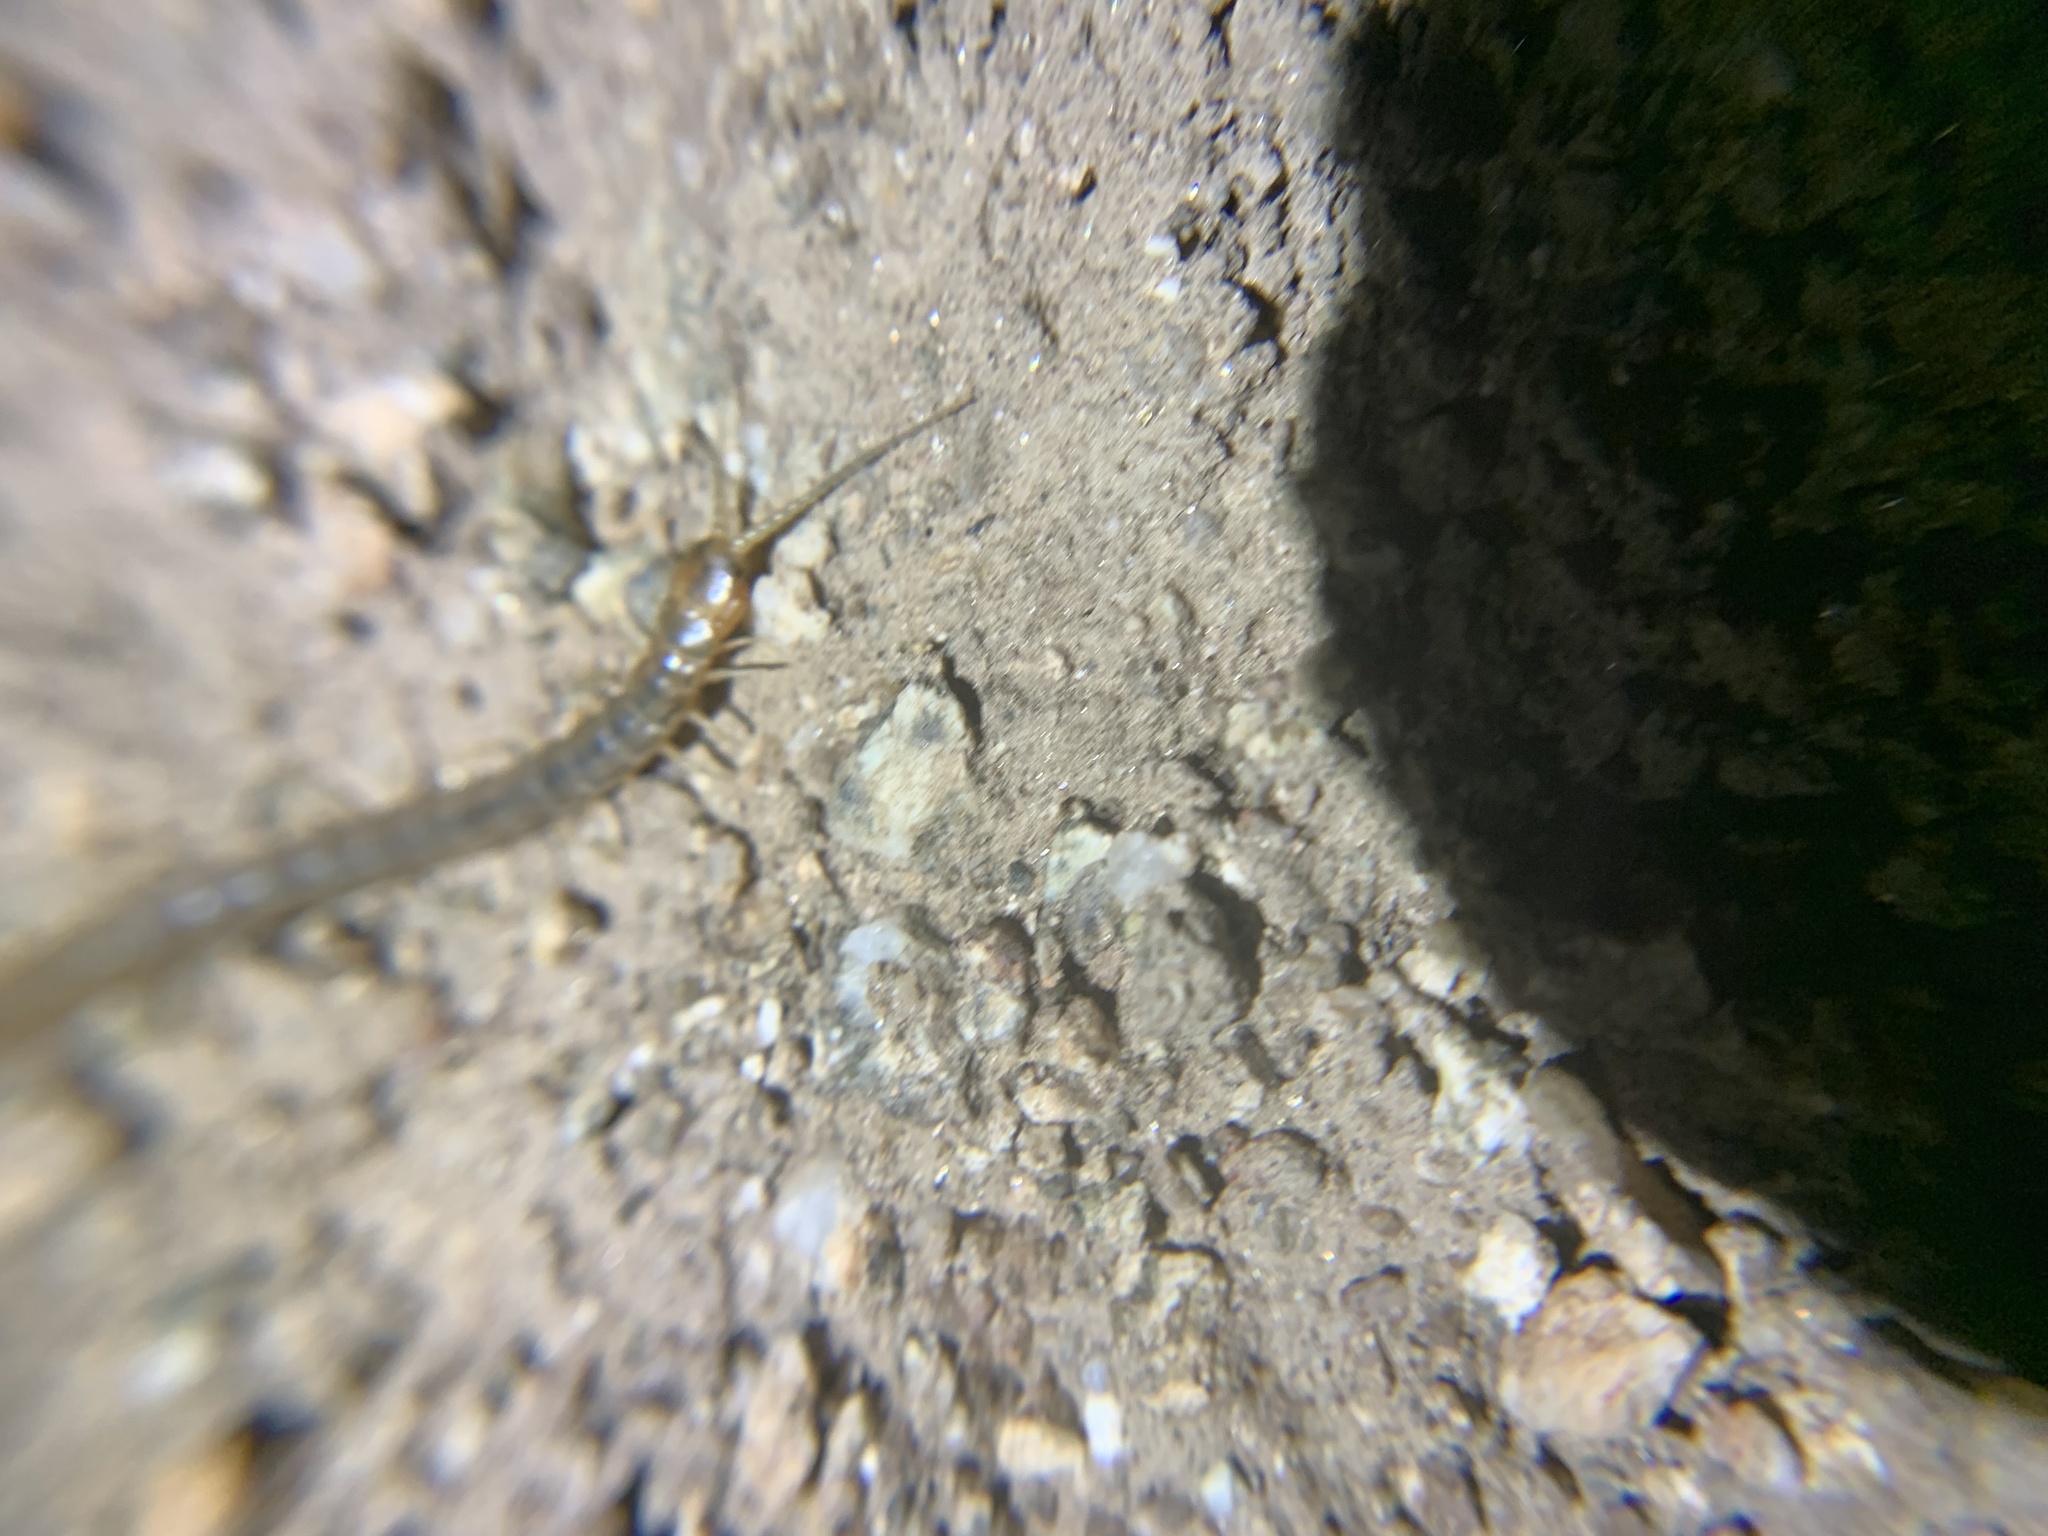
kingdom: Animalia
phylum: Arthropoda
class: Chilopoda
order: Scolopendromorpha
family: Scolopendridae
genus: Scolopendra
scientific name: Scolopendra viridis
